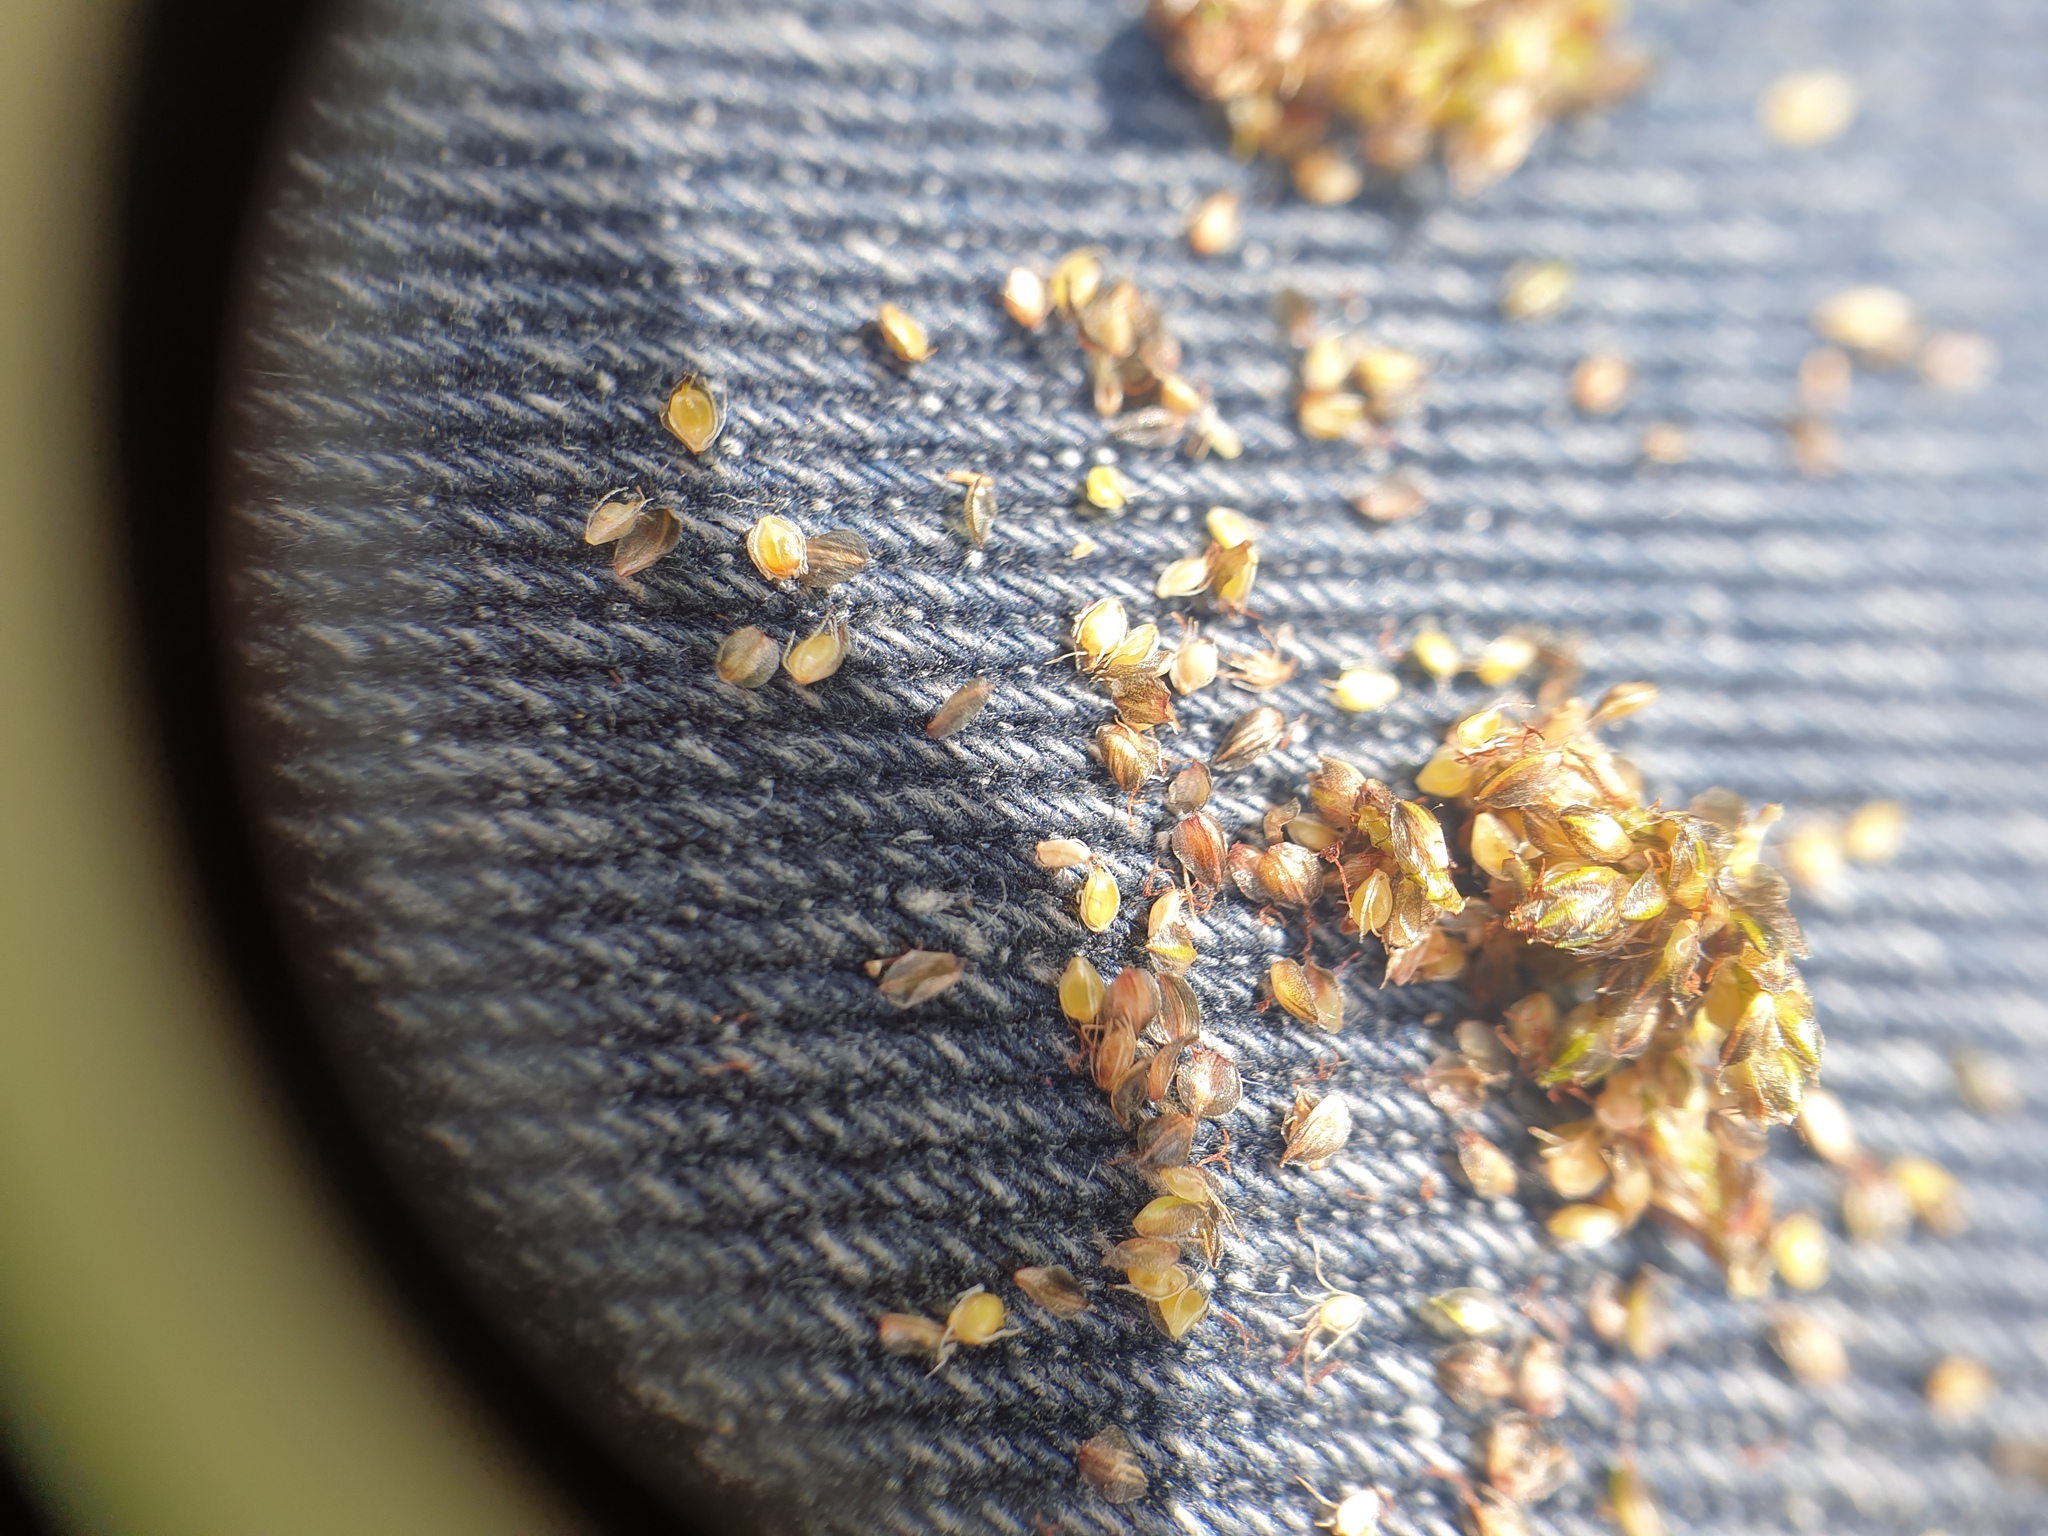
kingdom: Plantae
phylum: Tracheophyta
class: Liliopsida
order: Poales
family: Cyperaceae
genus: Scirpus
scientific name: Scirpus microcarpus
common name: Panicled bulrush
